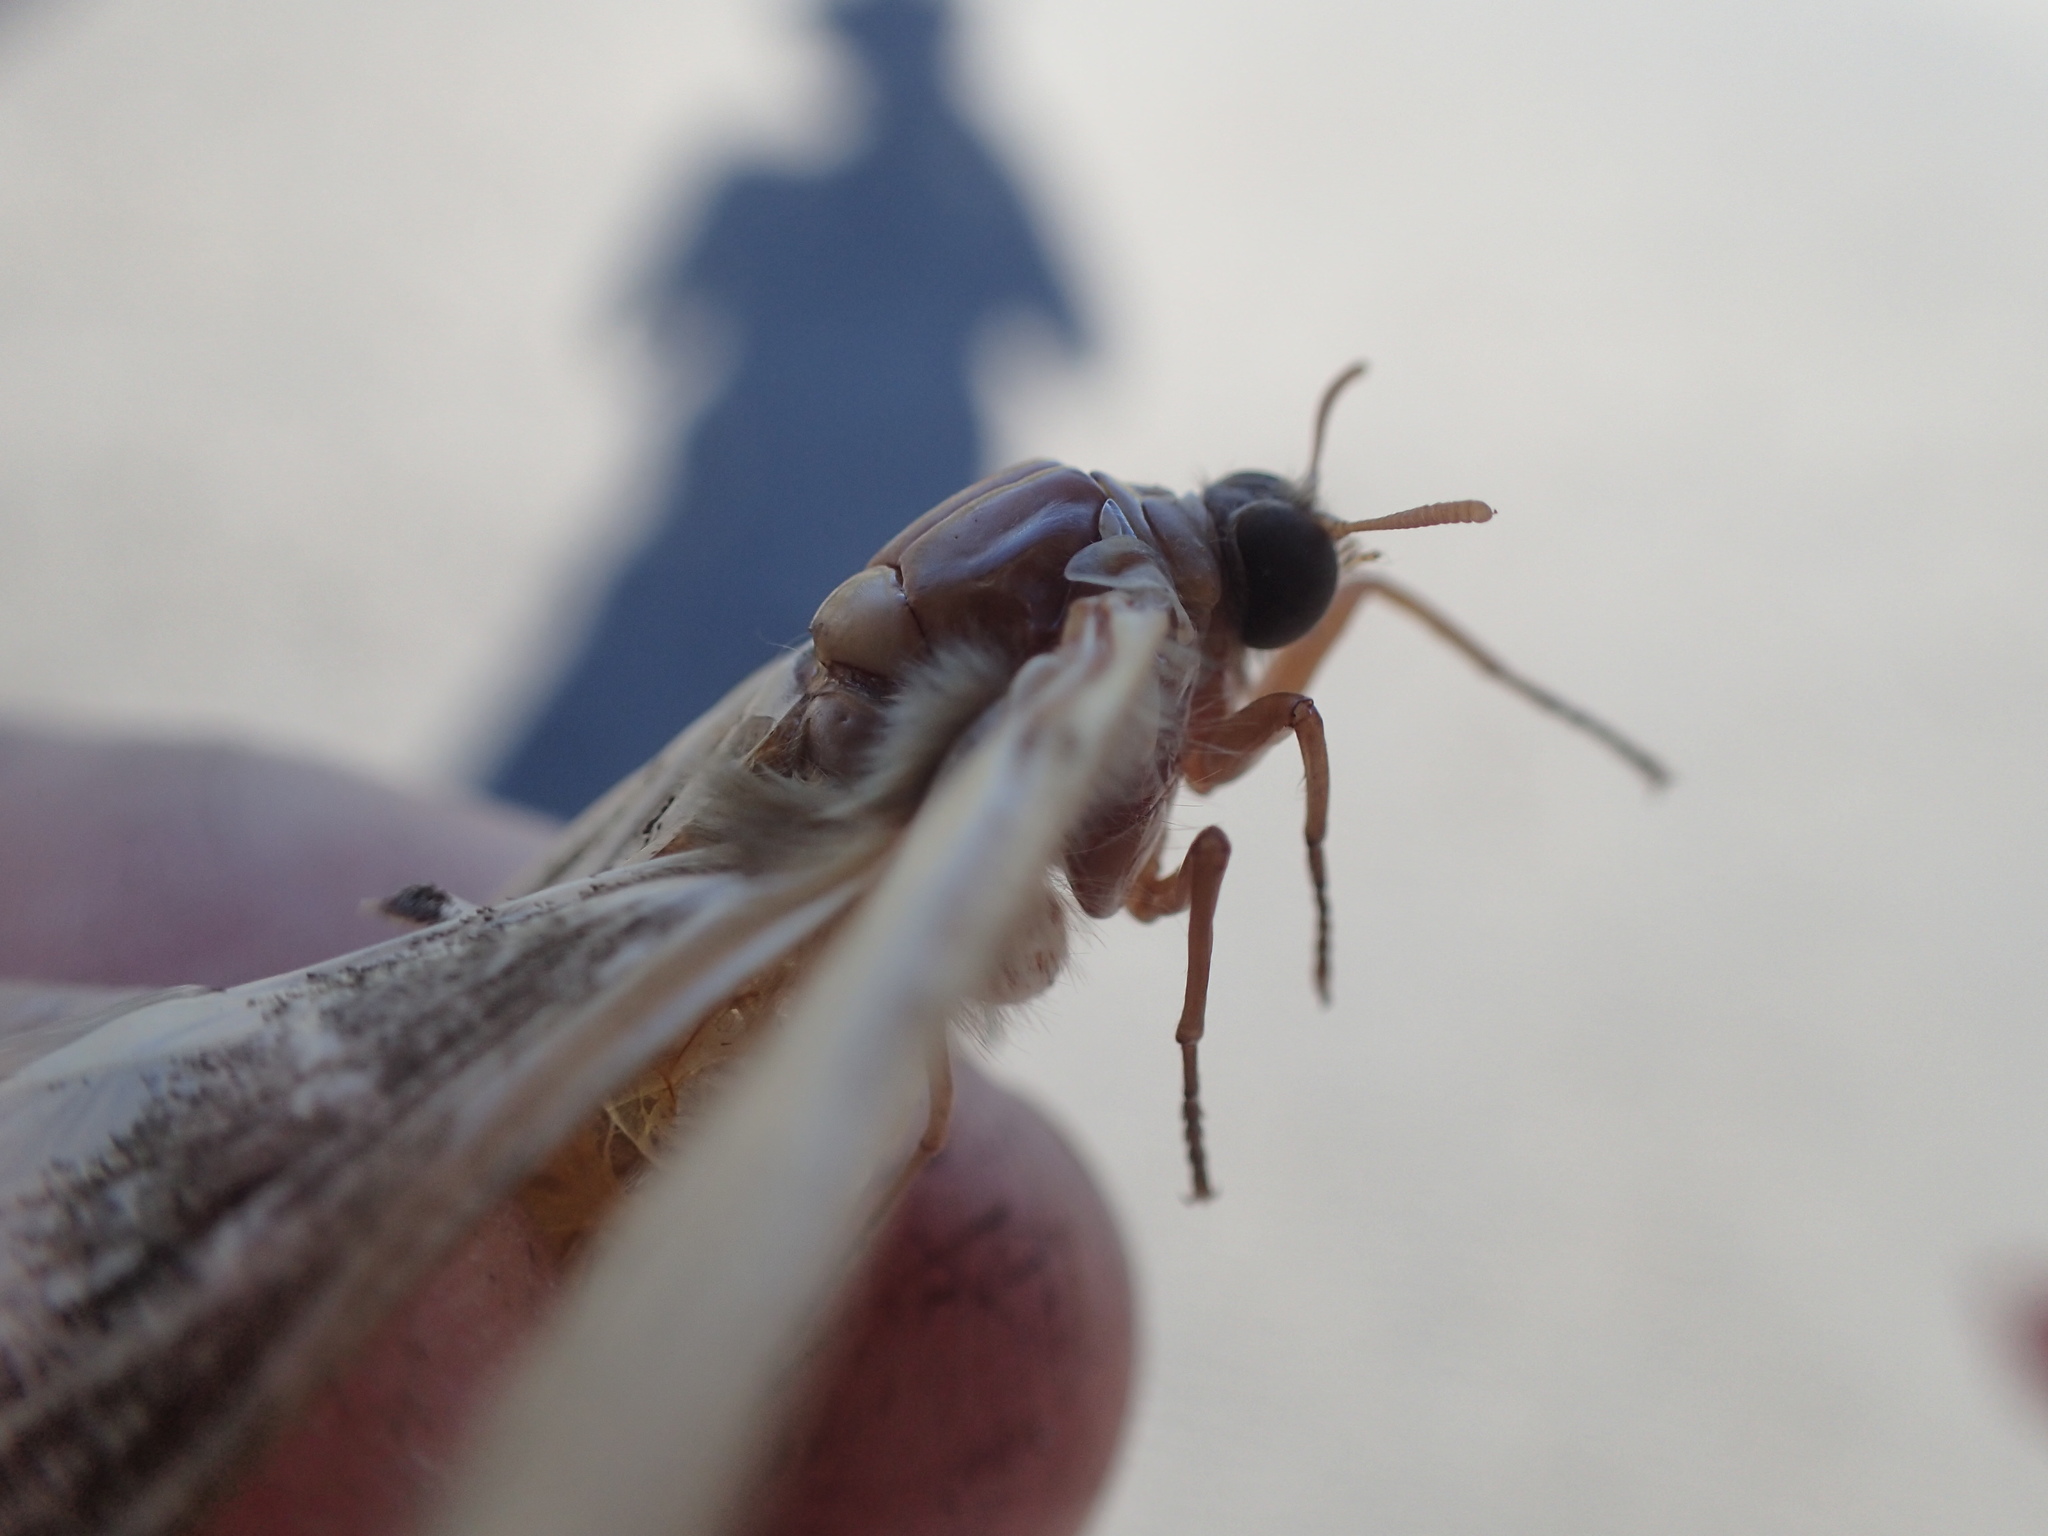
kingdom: Animalia
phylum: Arthropoda
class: Insecta
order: Lepidoptera
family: Hepialidae
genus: Oncopera
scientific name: Oncopera intricata
